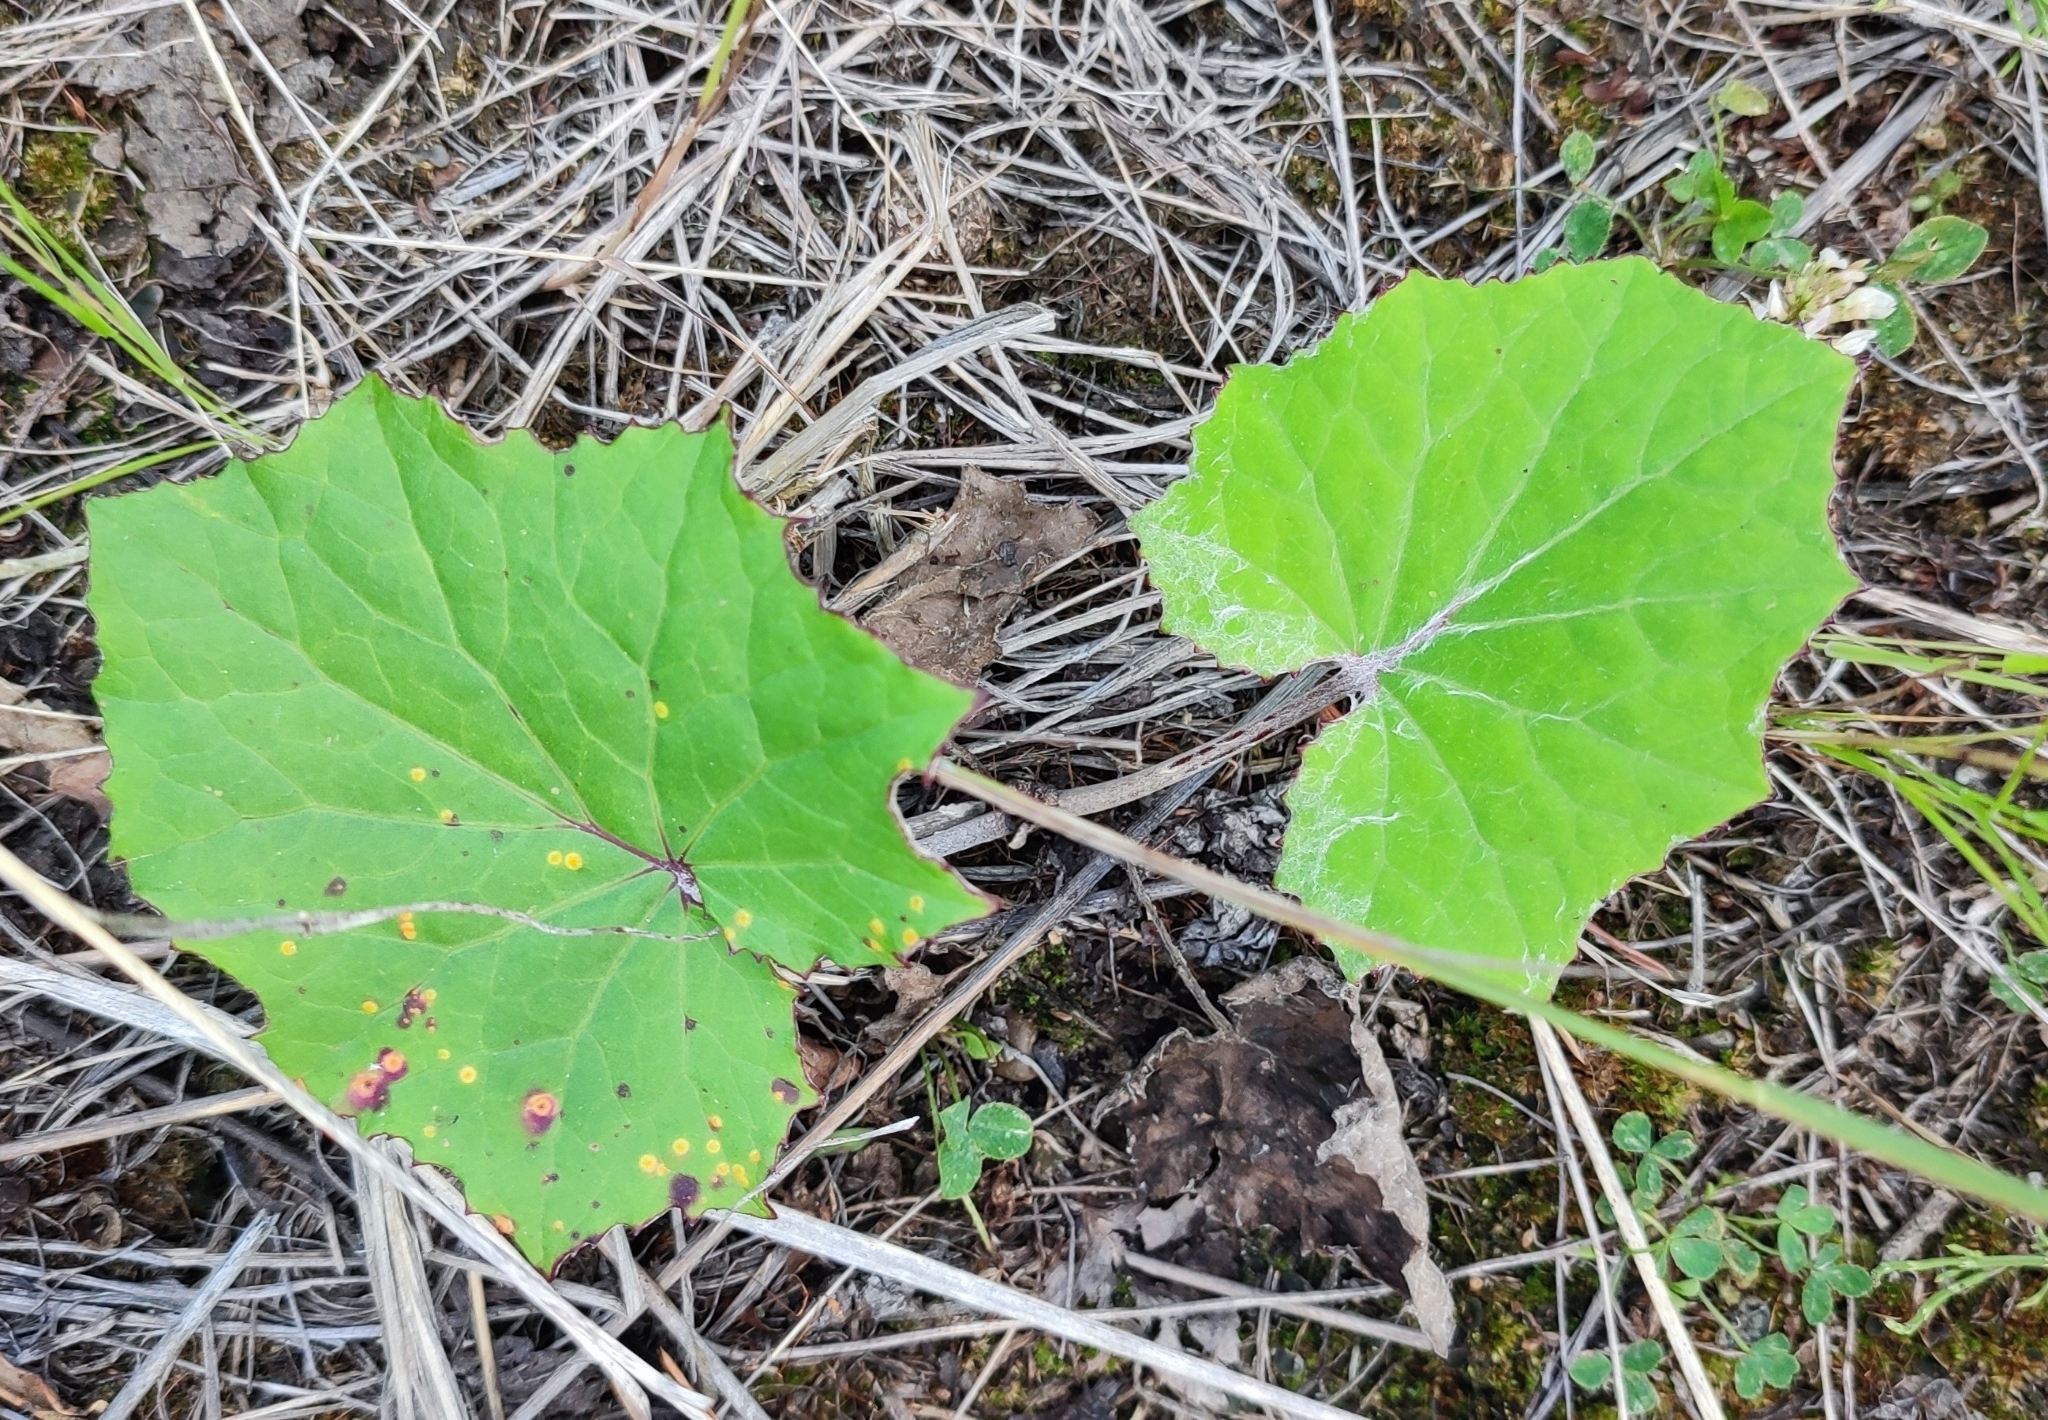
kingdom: Plantae
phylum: Tracheophyta
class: Magnoliopsida
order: Asterales
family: Asteraceae
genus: Tussilago
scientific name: Tussilago farfara
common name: Coltsfoot
